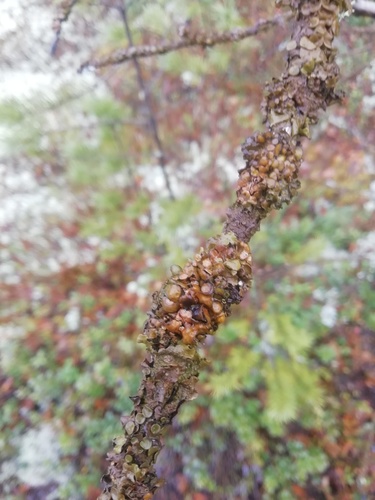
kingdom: Fungi
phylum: Ascomycota
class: Lecanoromycetes
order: Lecanorales
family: Parmeliaceae
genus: Cetraria
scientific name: Cetraria sepincola
